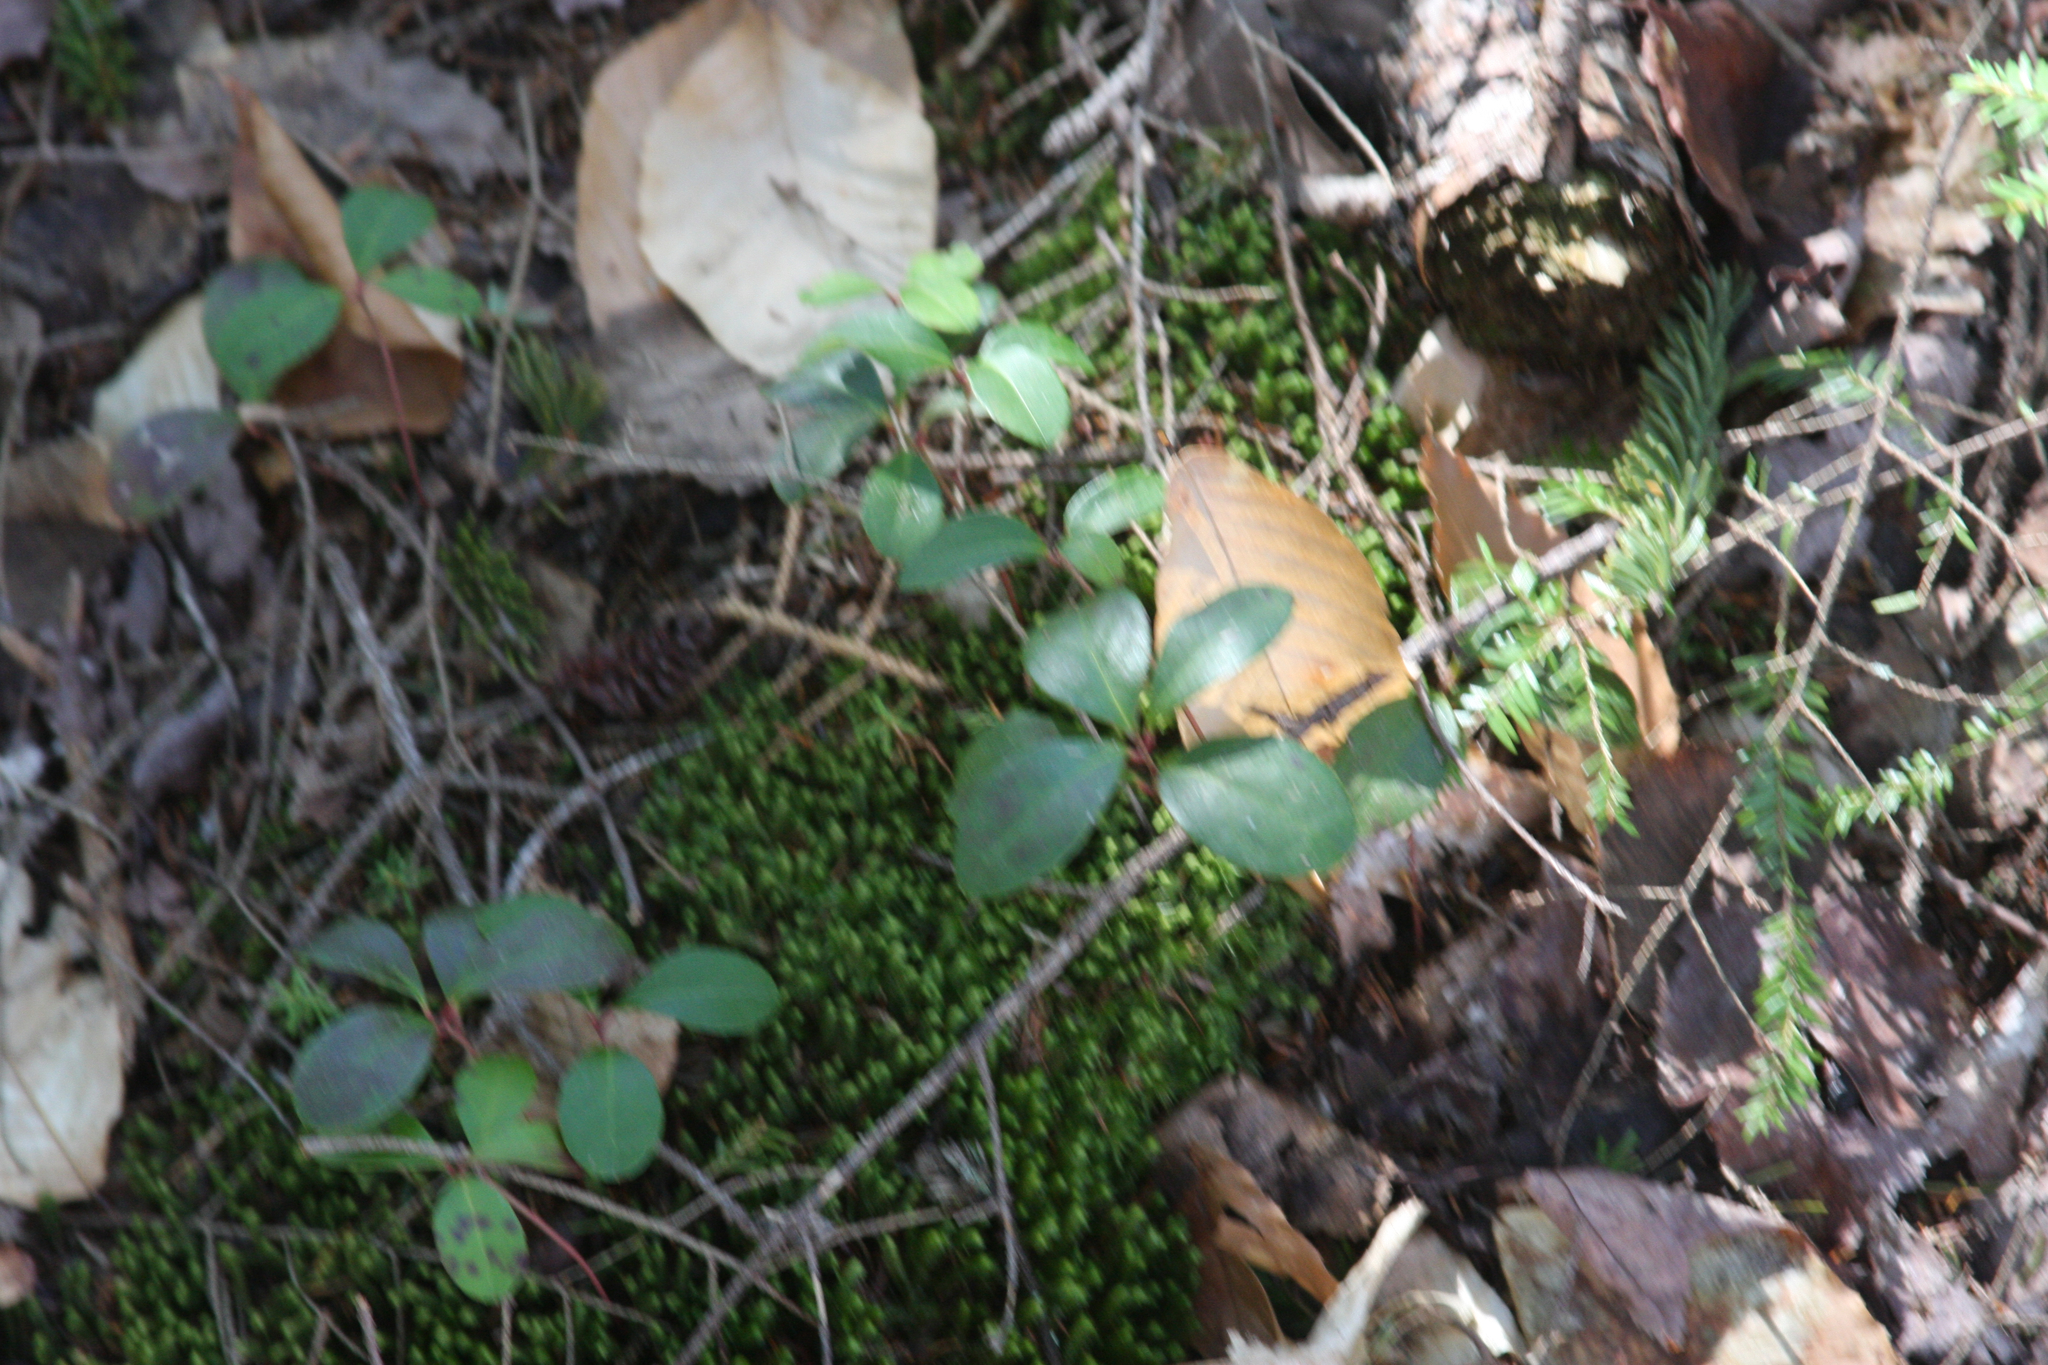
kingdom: Plantae
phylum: Tracheophyta
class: Magnoliopsida
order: Ericales
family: Ericaceae
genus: Gaultheria
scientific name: Gaultheria procumbens
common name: Checkerberry
